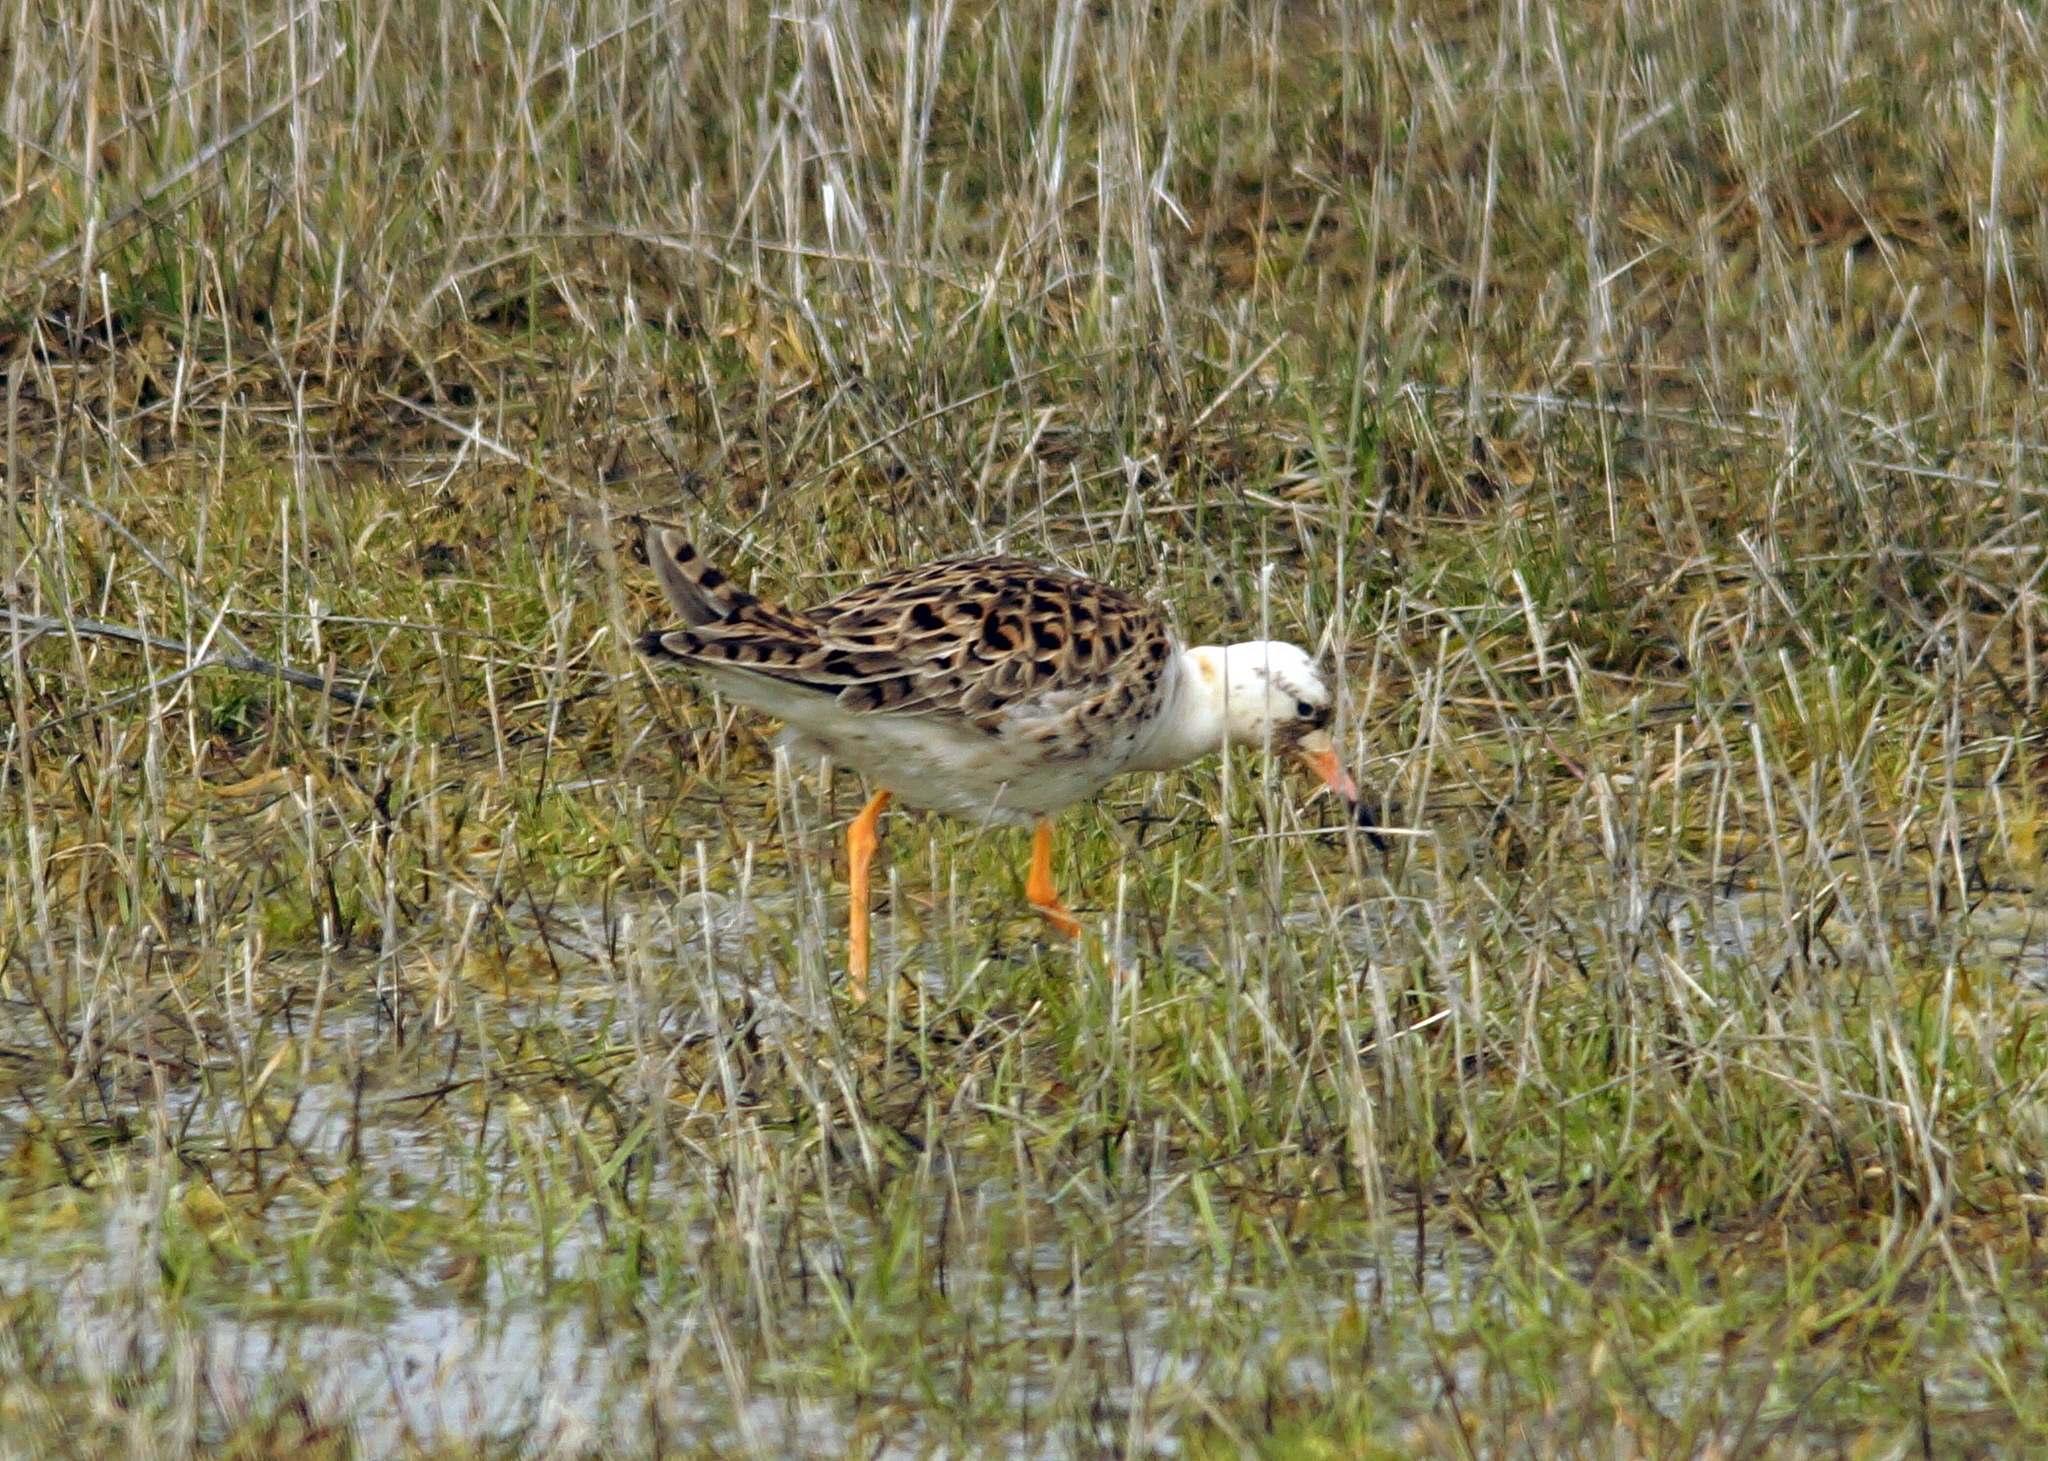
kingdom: Animalia
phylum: Chordata
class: Aves
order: Charadriiformes
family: Scolopacidae
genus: Calidris
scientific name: Calidris pugnax
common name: Ruff
